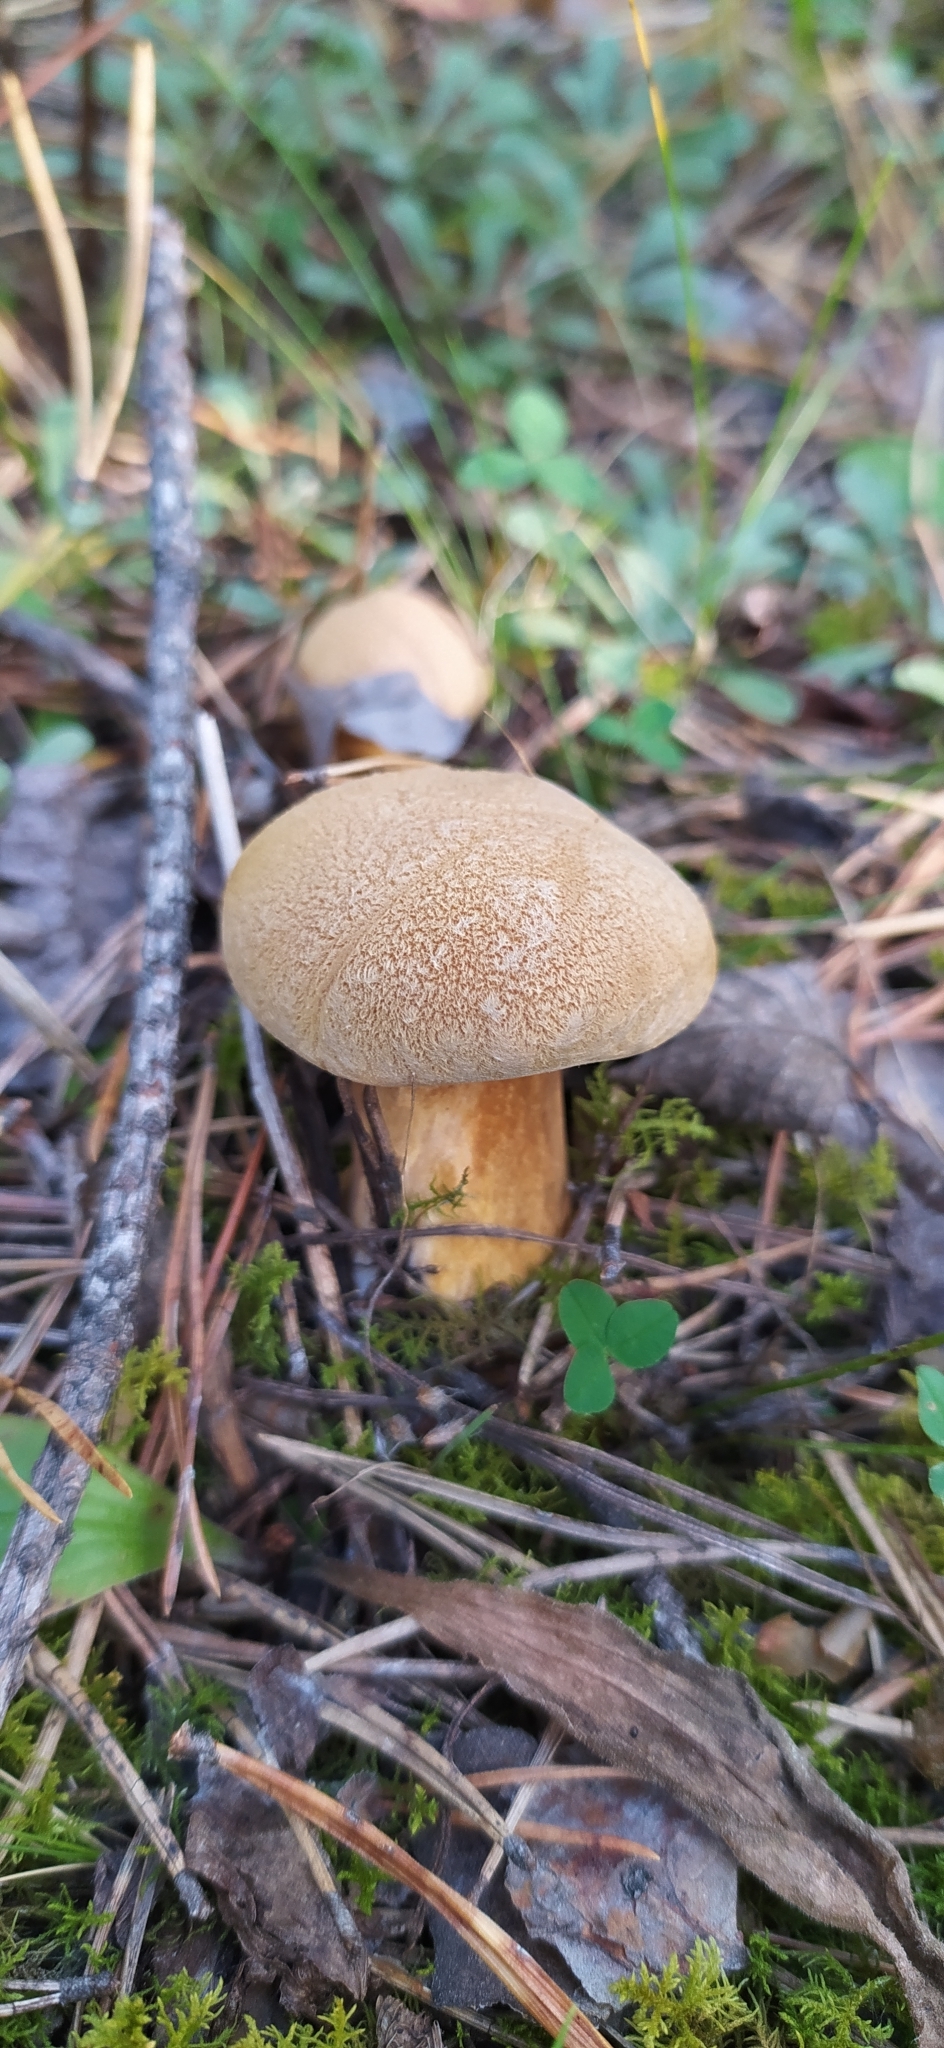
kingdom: Fungi
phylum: Basidiomycota
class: Agaricomycetes
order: Boletales
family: Suillaceae
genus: Suillus
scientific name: Suillus variegatus
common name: Velvet bolete
